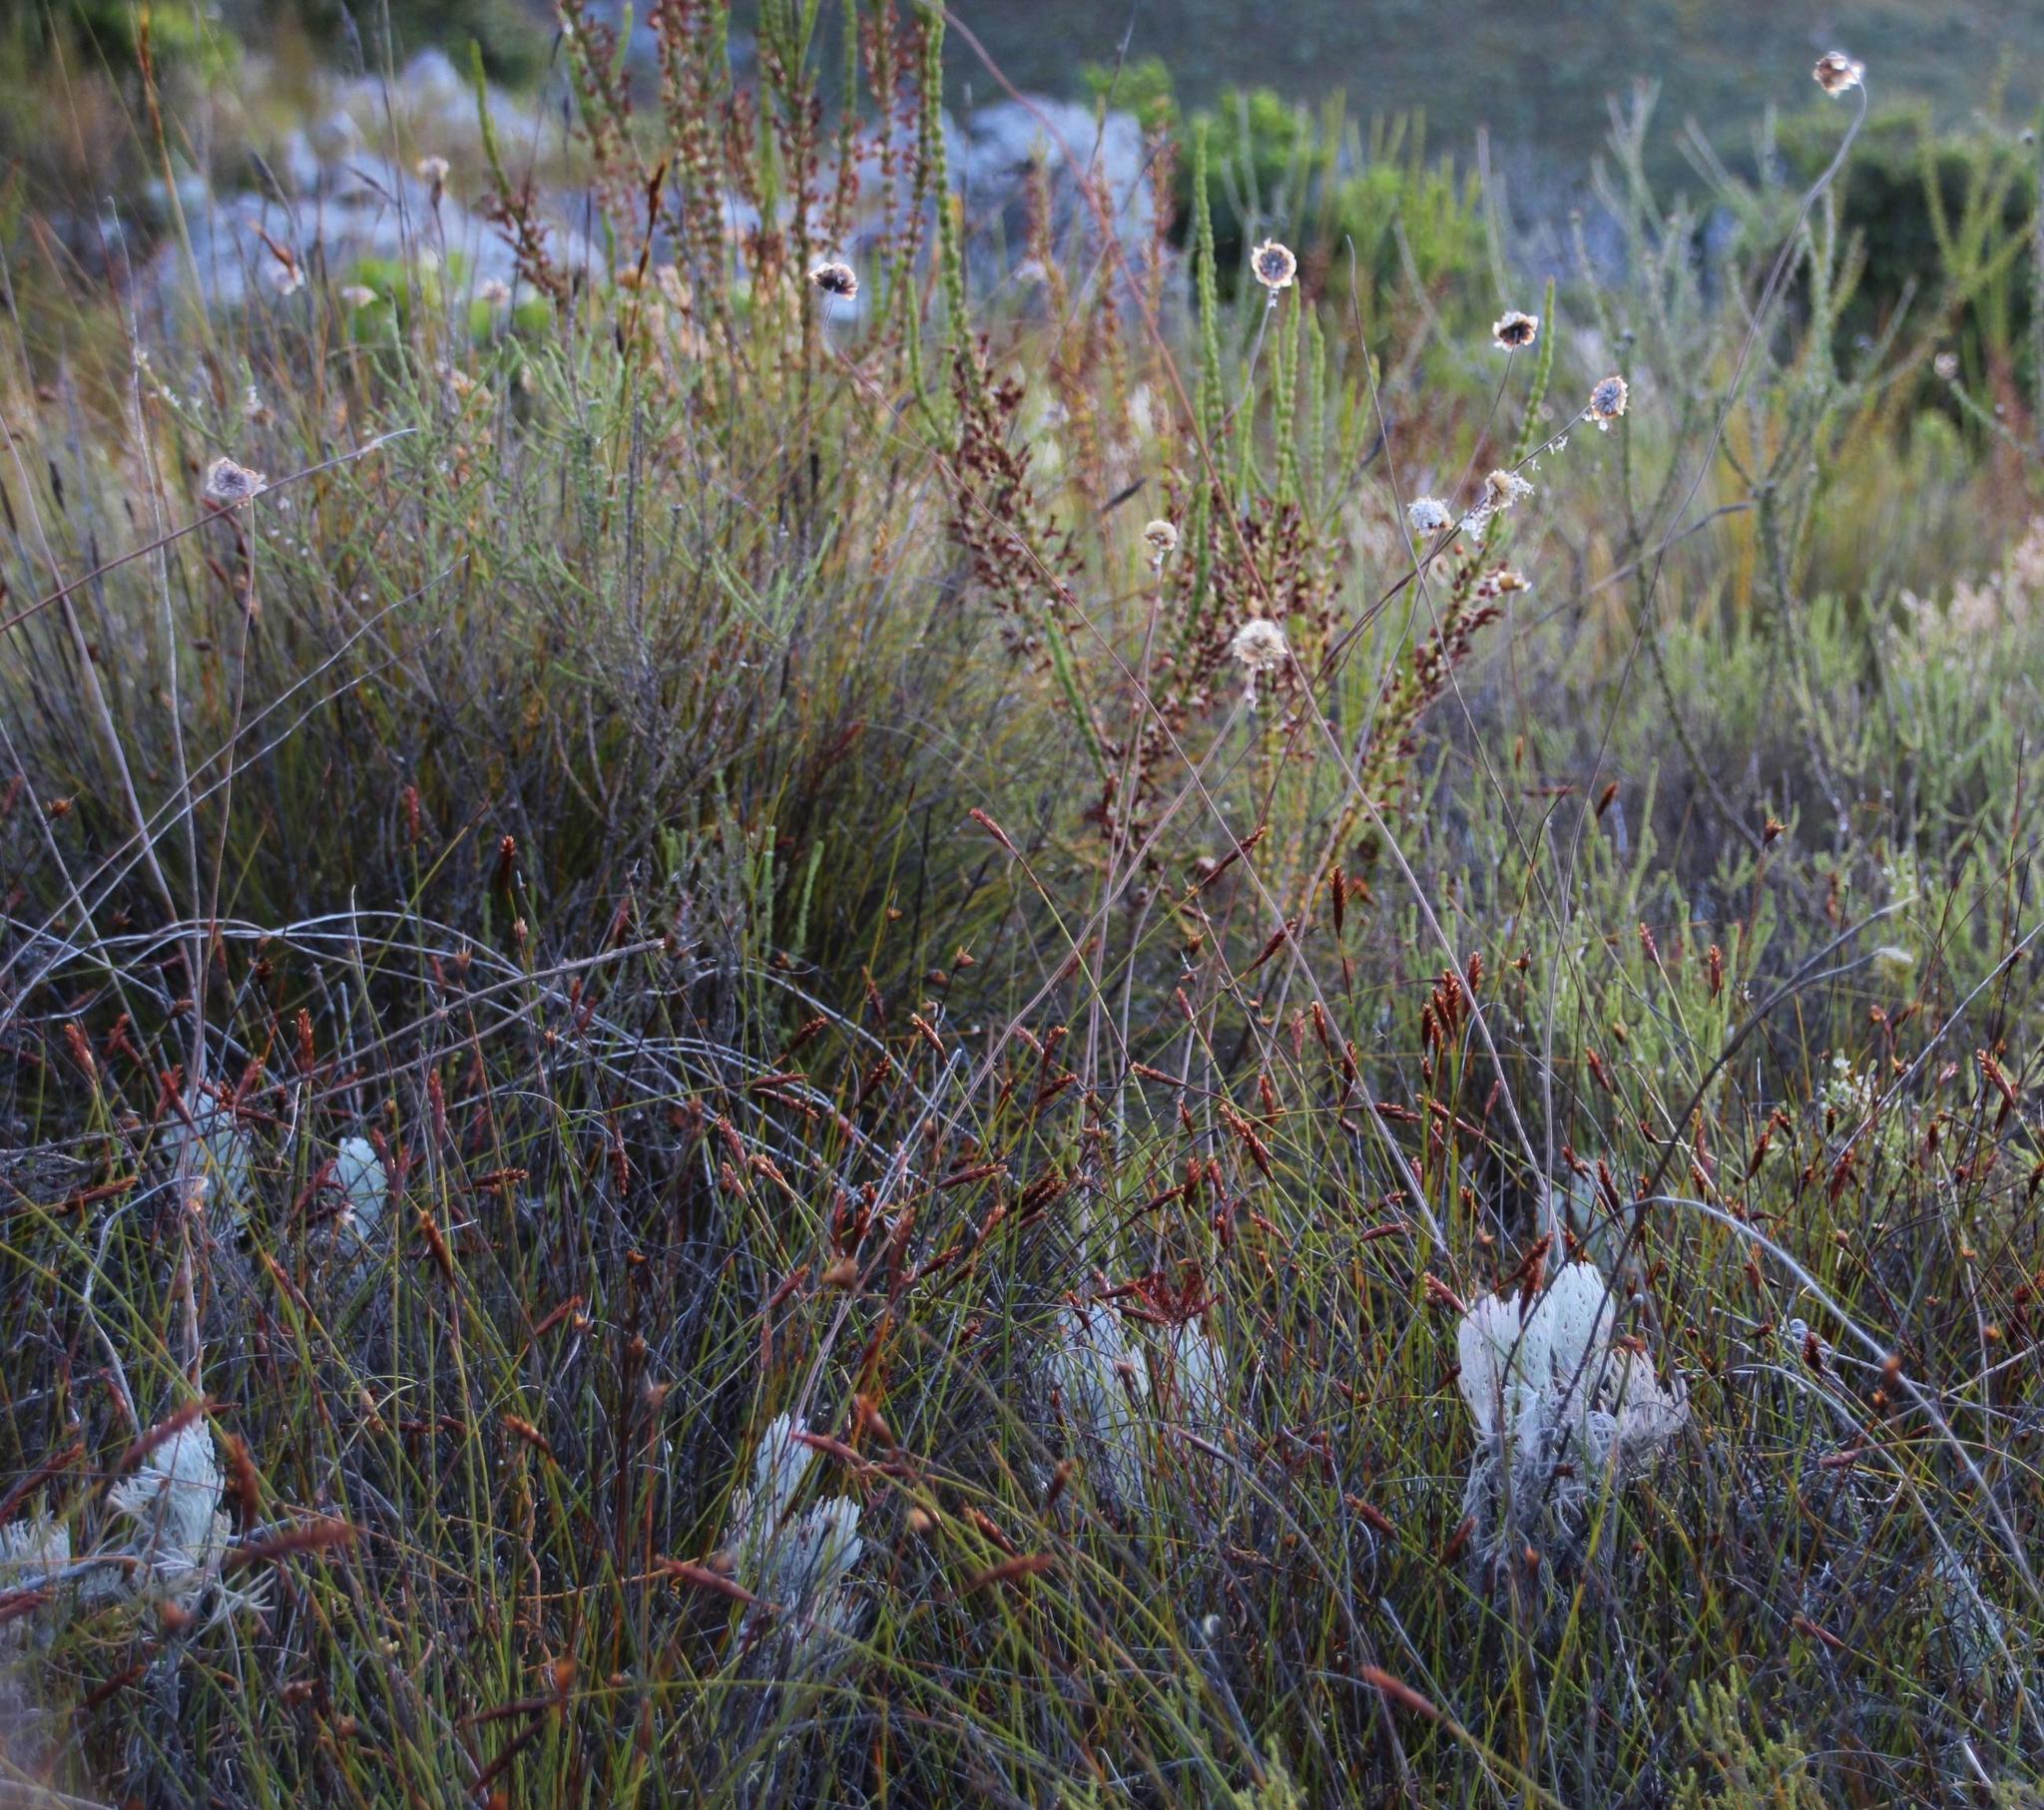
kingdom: Plantae
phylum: Tracheophyta
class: Magnoliopsida
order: Asterales
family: Asteraceae
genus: Ursinia
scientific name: Ursinia sericea
